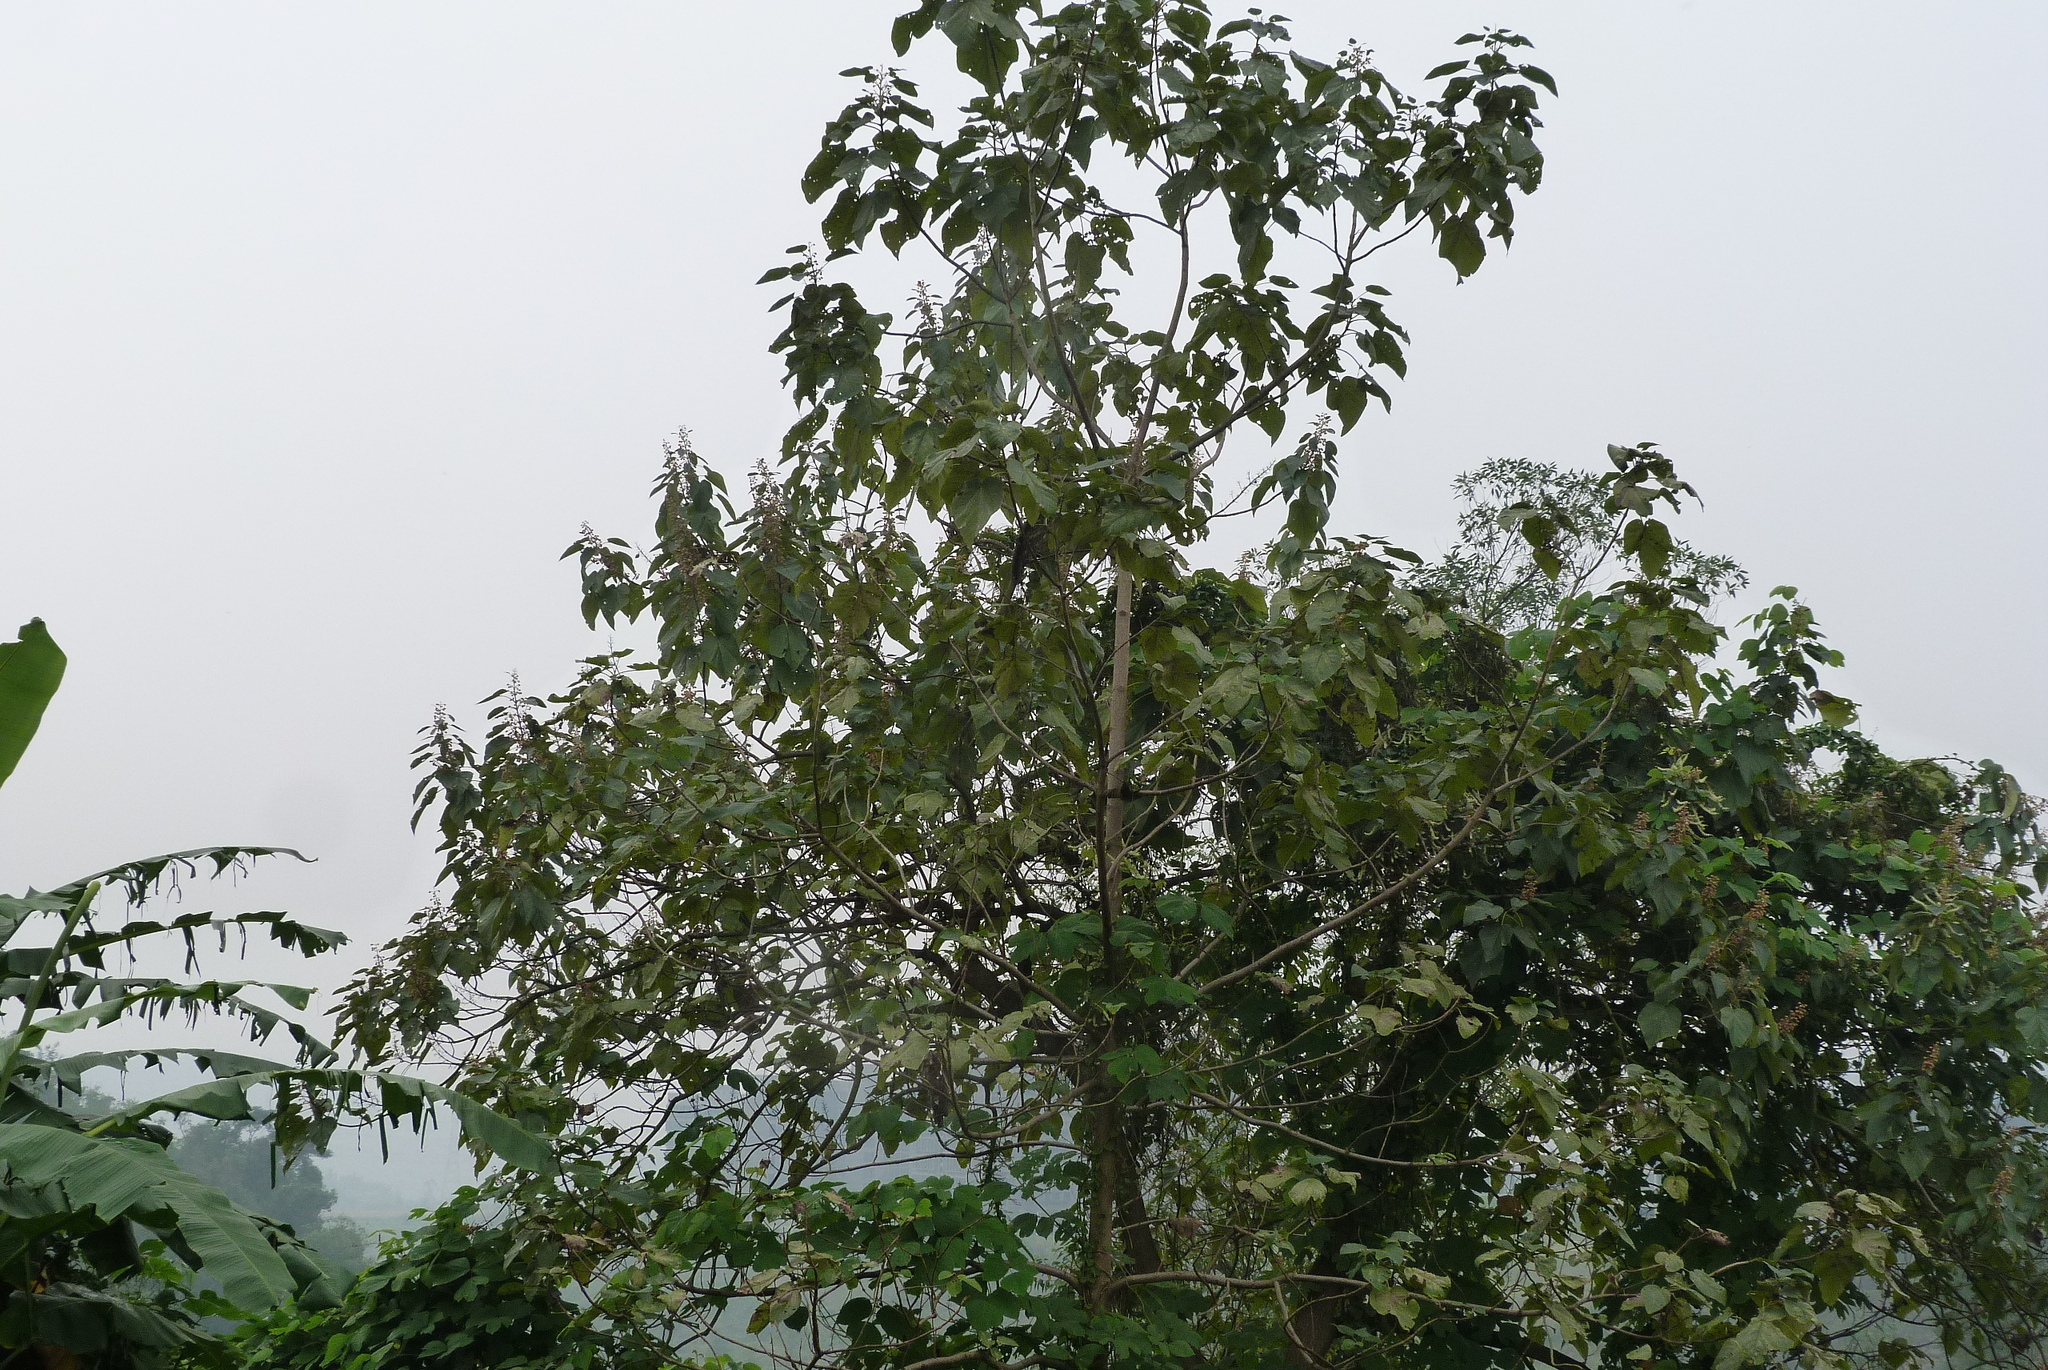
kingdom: Plantae
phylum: Tracheophyta
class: Magnoliopsida
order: Lamiales
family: Paulowniaceae
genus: Paulownia
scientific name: Paulownia tomentosa
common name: Foxglove-tree
